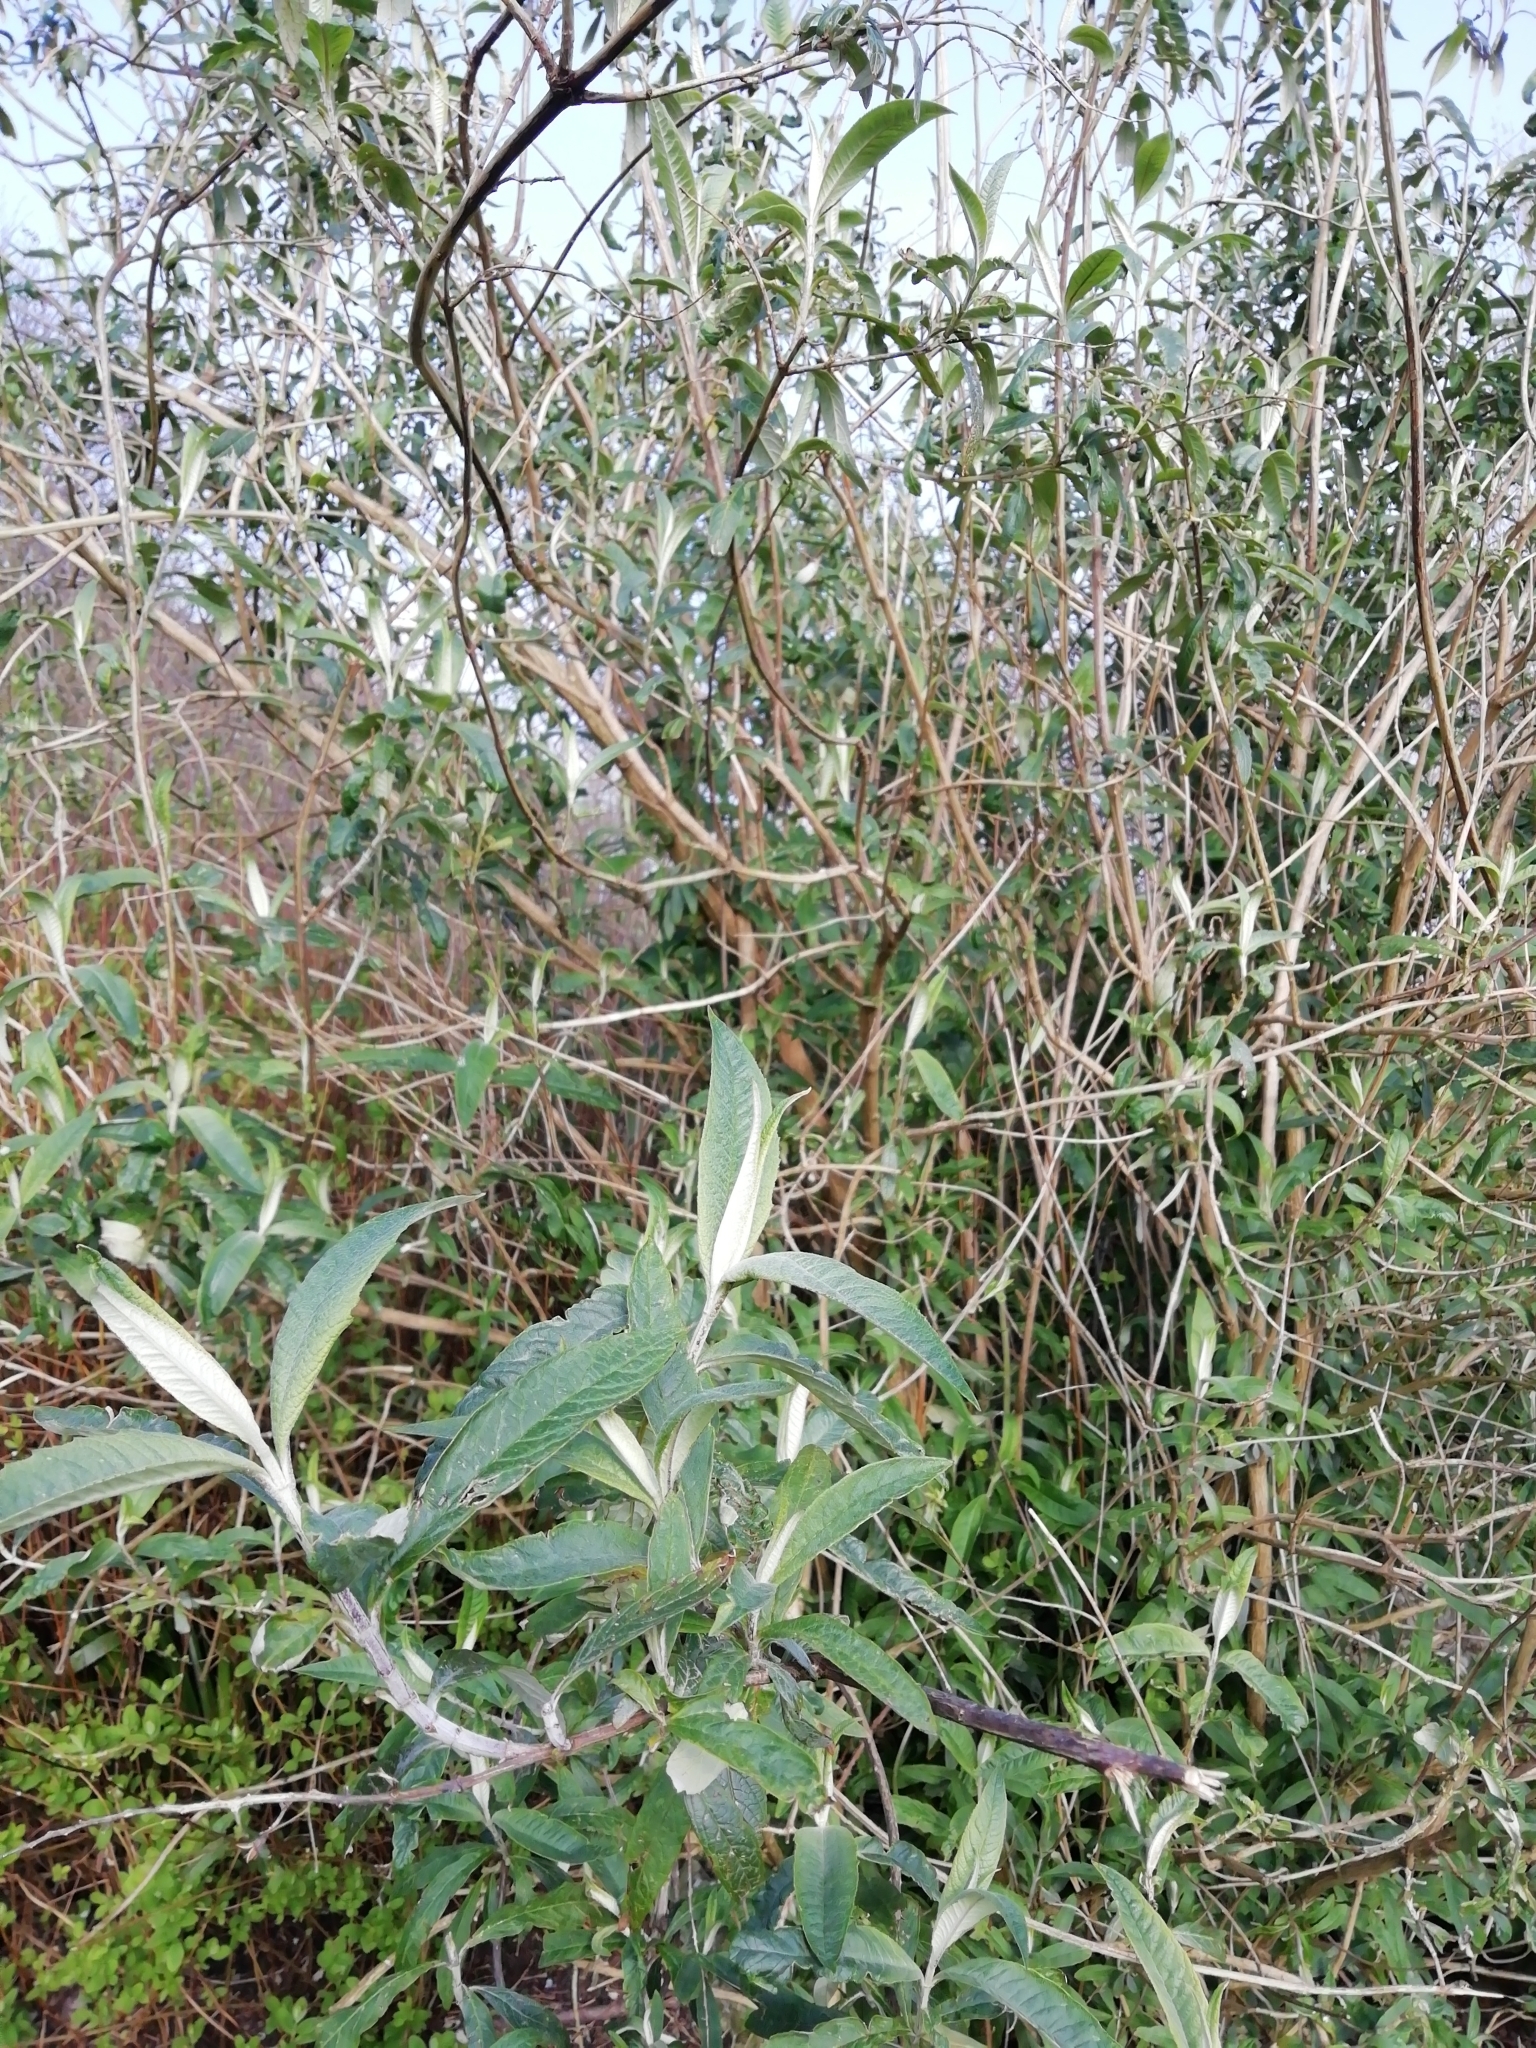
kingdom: Plantae
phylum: Tracheophyta
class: Magnoliopsida
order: Lamiales
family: Scrophulariaceae
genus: Buddleja
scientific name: Buddleja davidii
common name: Butterfly-bush
